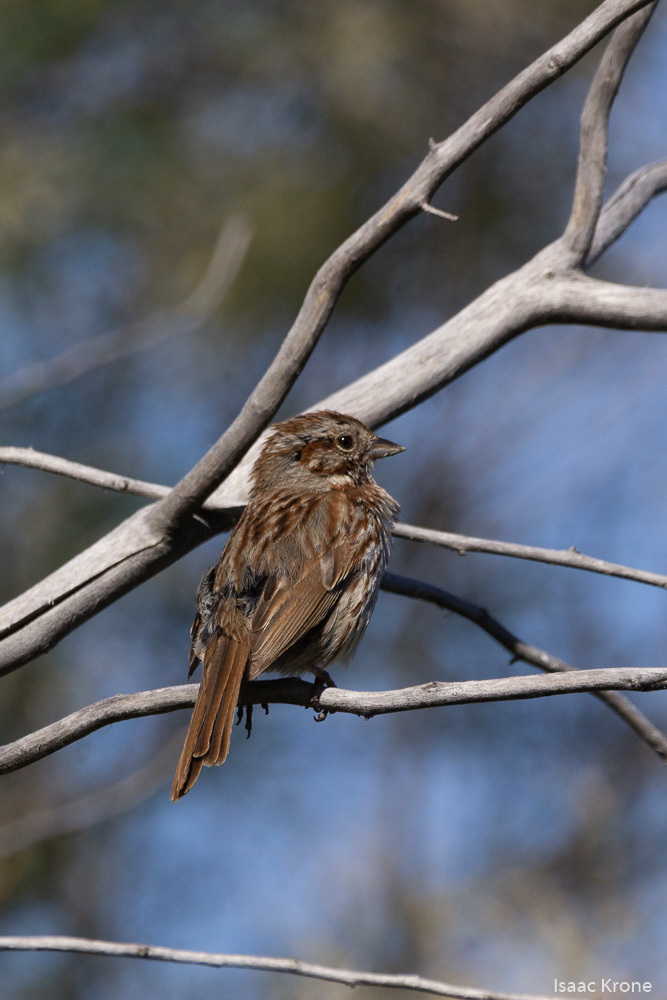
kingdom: Animalia
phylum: Chordata
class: Aves
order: Passeriformes
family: Passerellidae
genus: Melospiza
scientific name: Melospiza melodia
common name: Song sparrow
